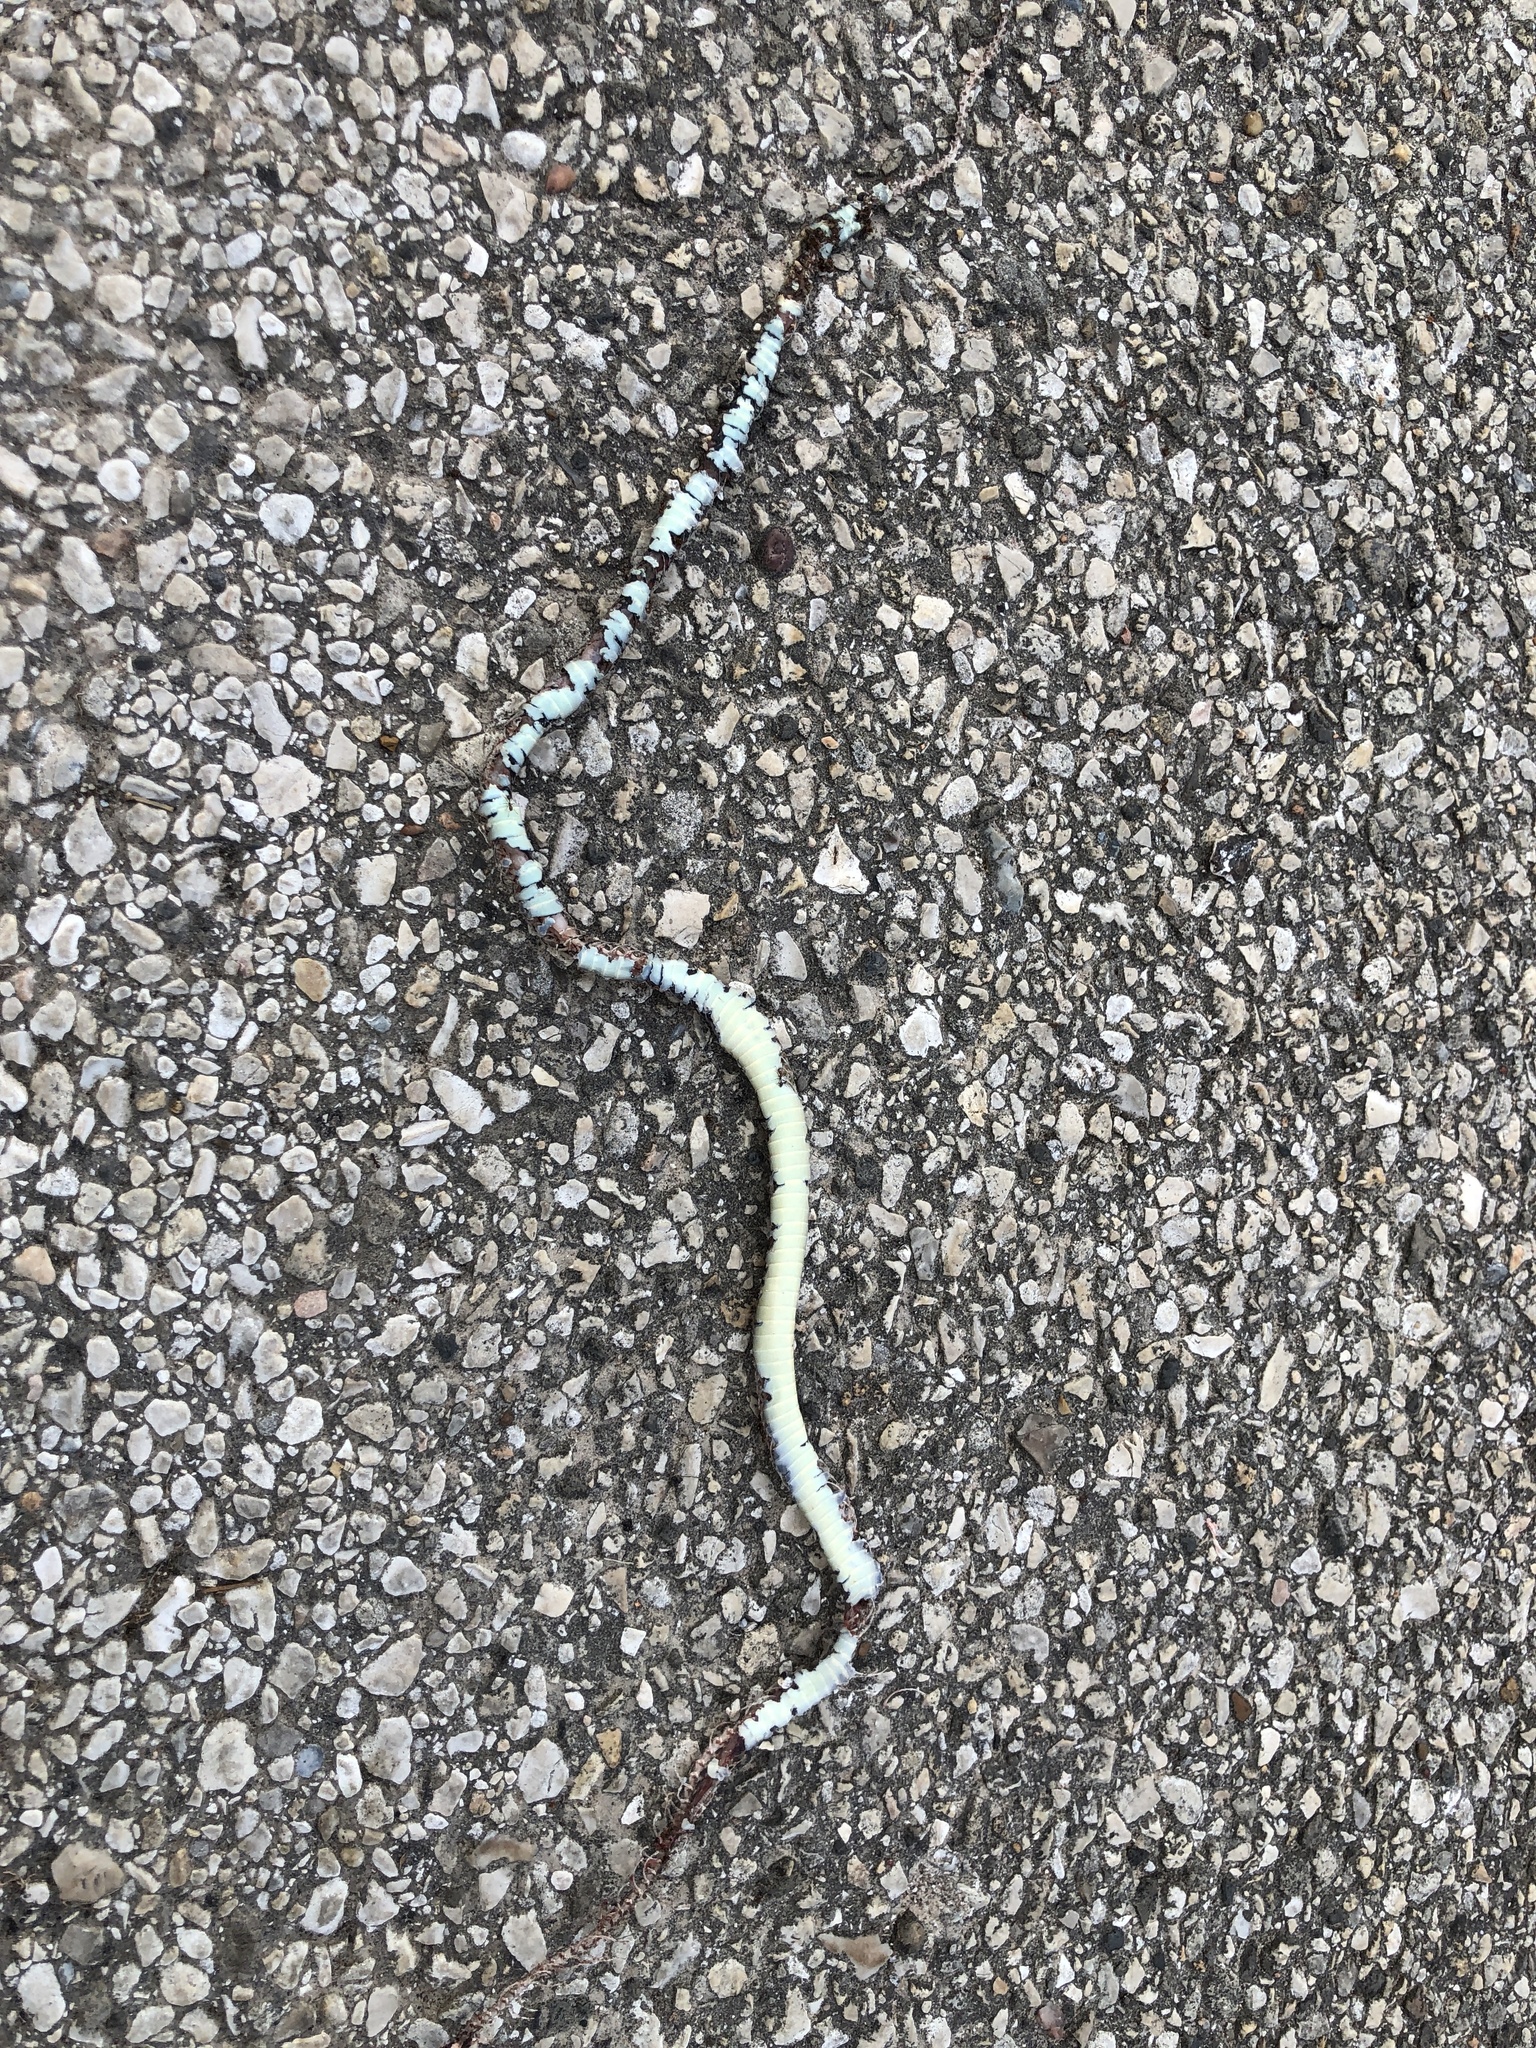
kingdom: Animalia
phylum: Chordata
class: Squamata
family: Colubridae
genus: Thamnophis
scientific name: Thamnophis proximus
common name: Western ribbon snake
